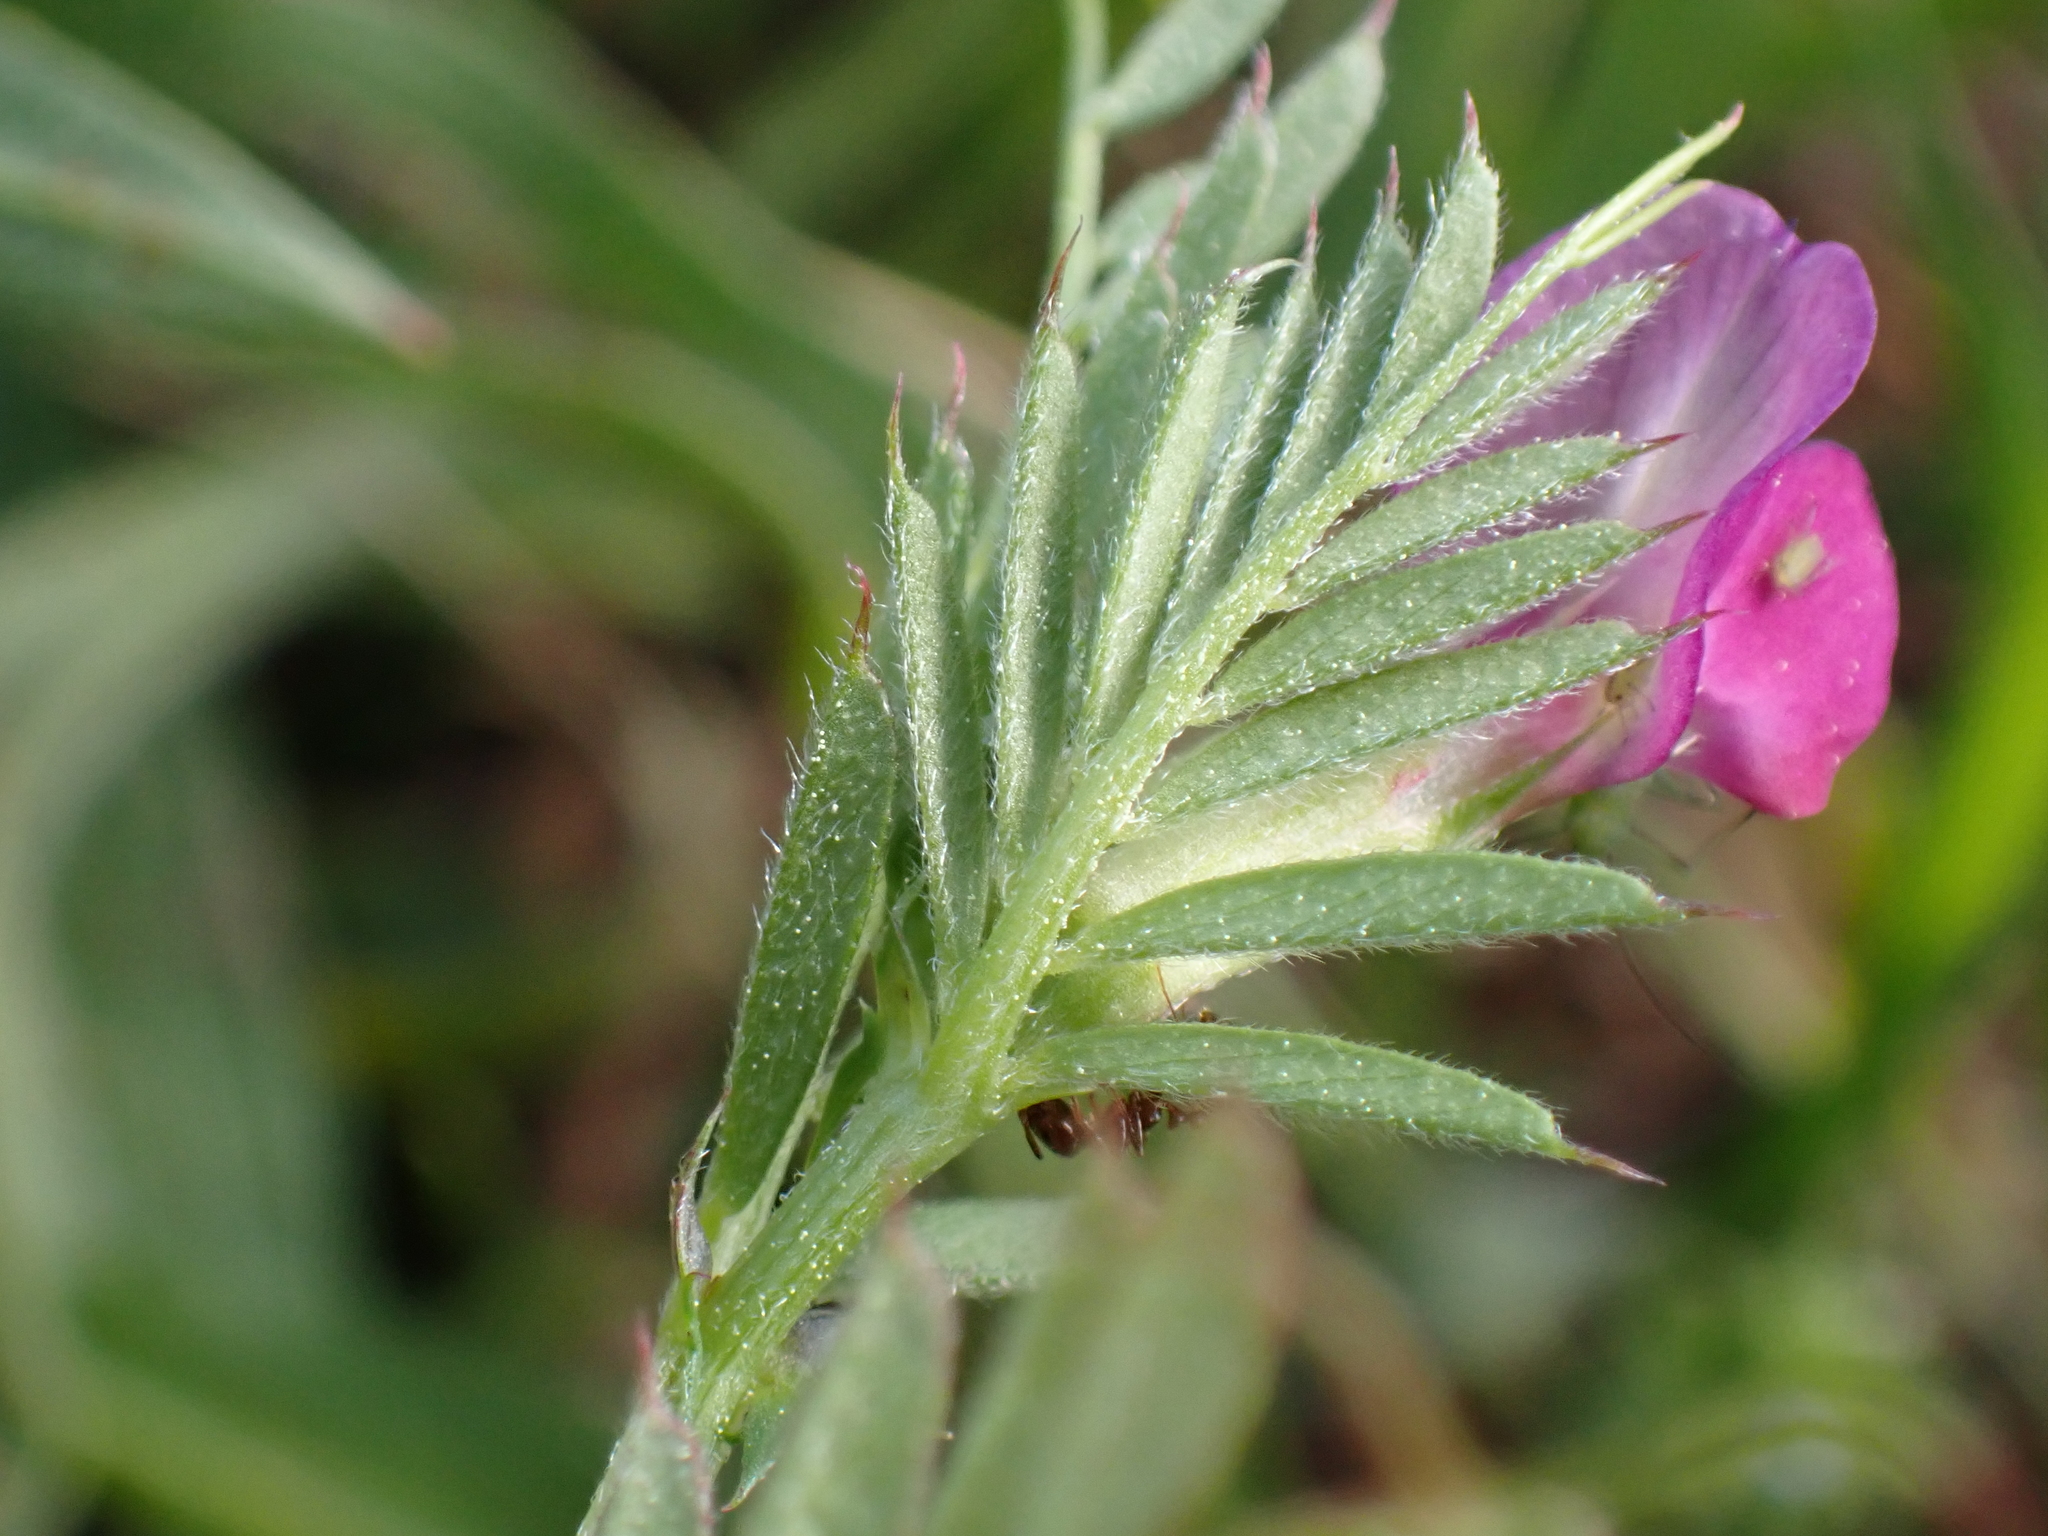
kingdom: Plantae
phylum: Tracheophyta
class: Magnoliopsida
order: Fabales
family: Fabaceae
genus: Vicia
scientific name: Vicia sativa
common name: Garden vetch
